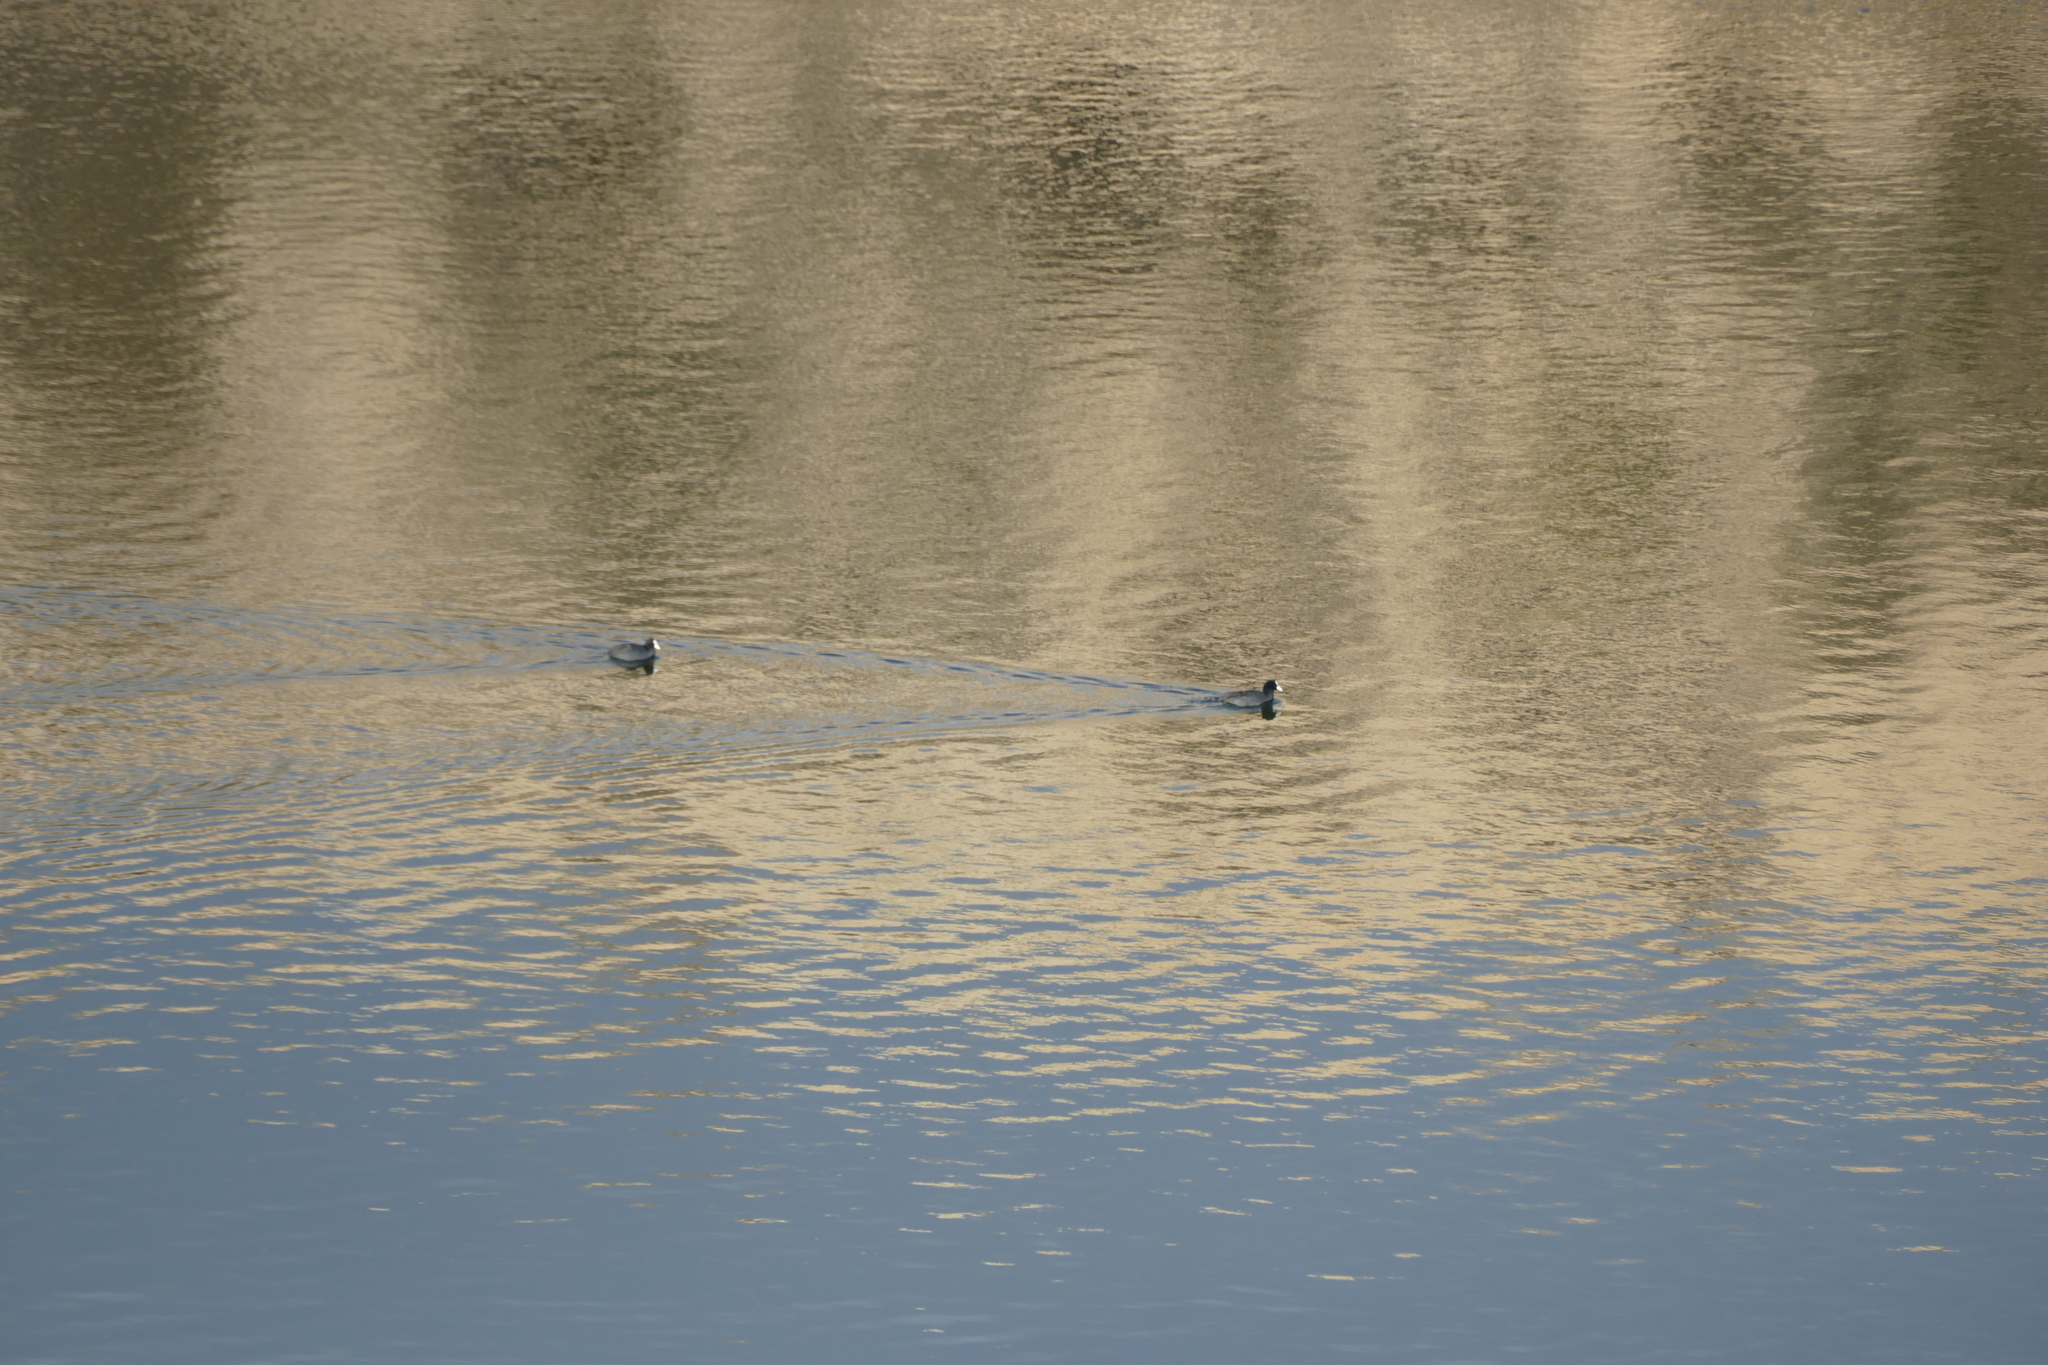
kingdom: Animalia
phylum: Chordata
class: Aves
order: Gruiformes
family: Rallidae
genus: Fulica
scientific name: Fulica atra
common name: Eurasian coot
